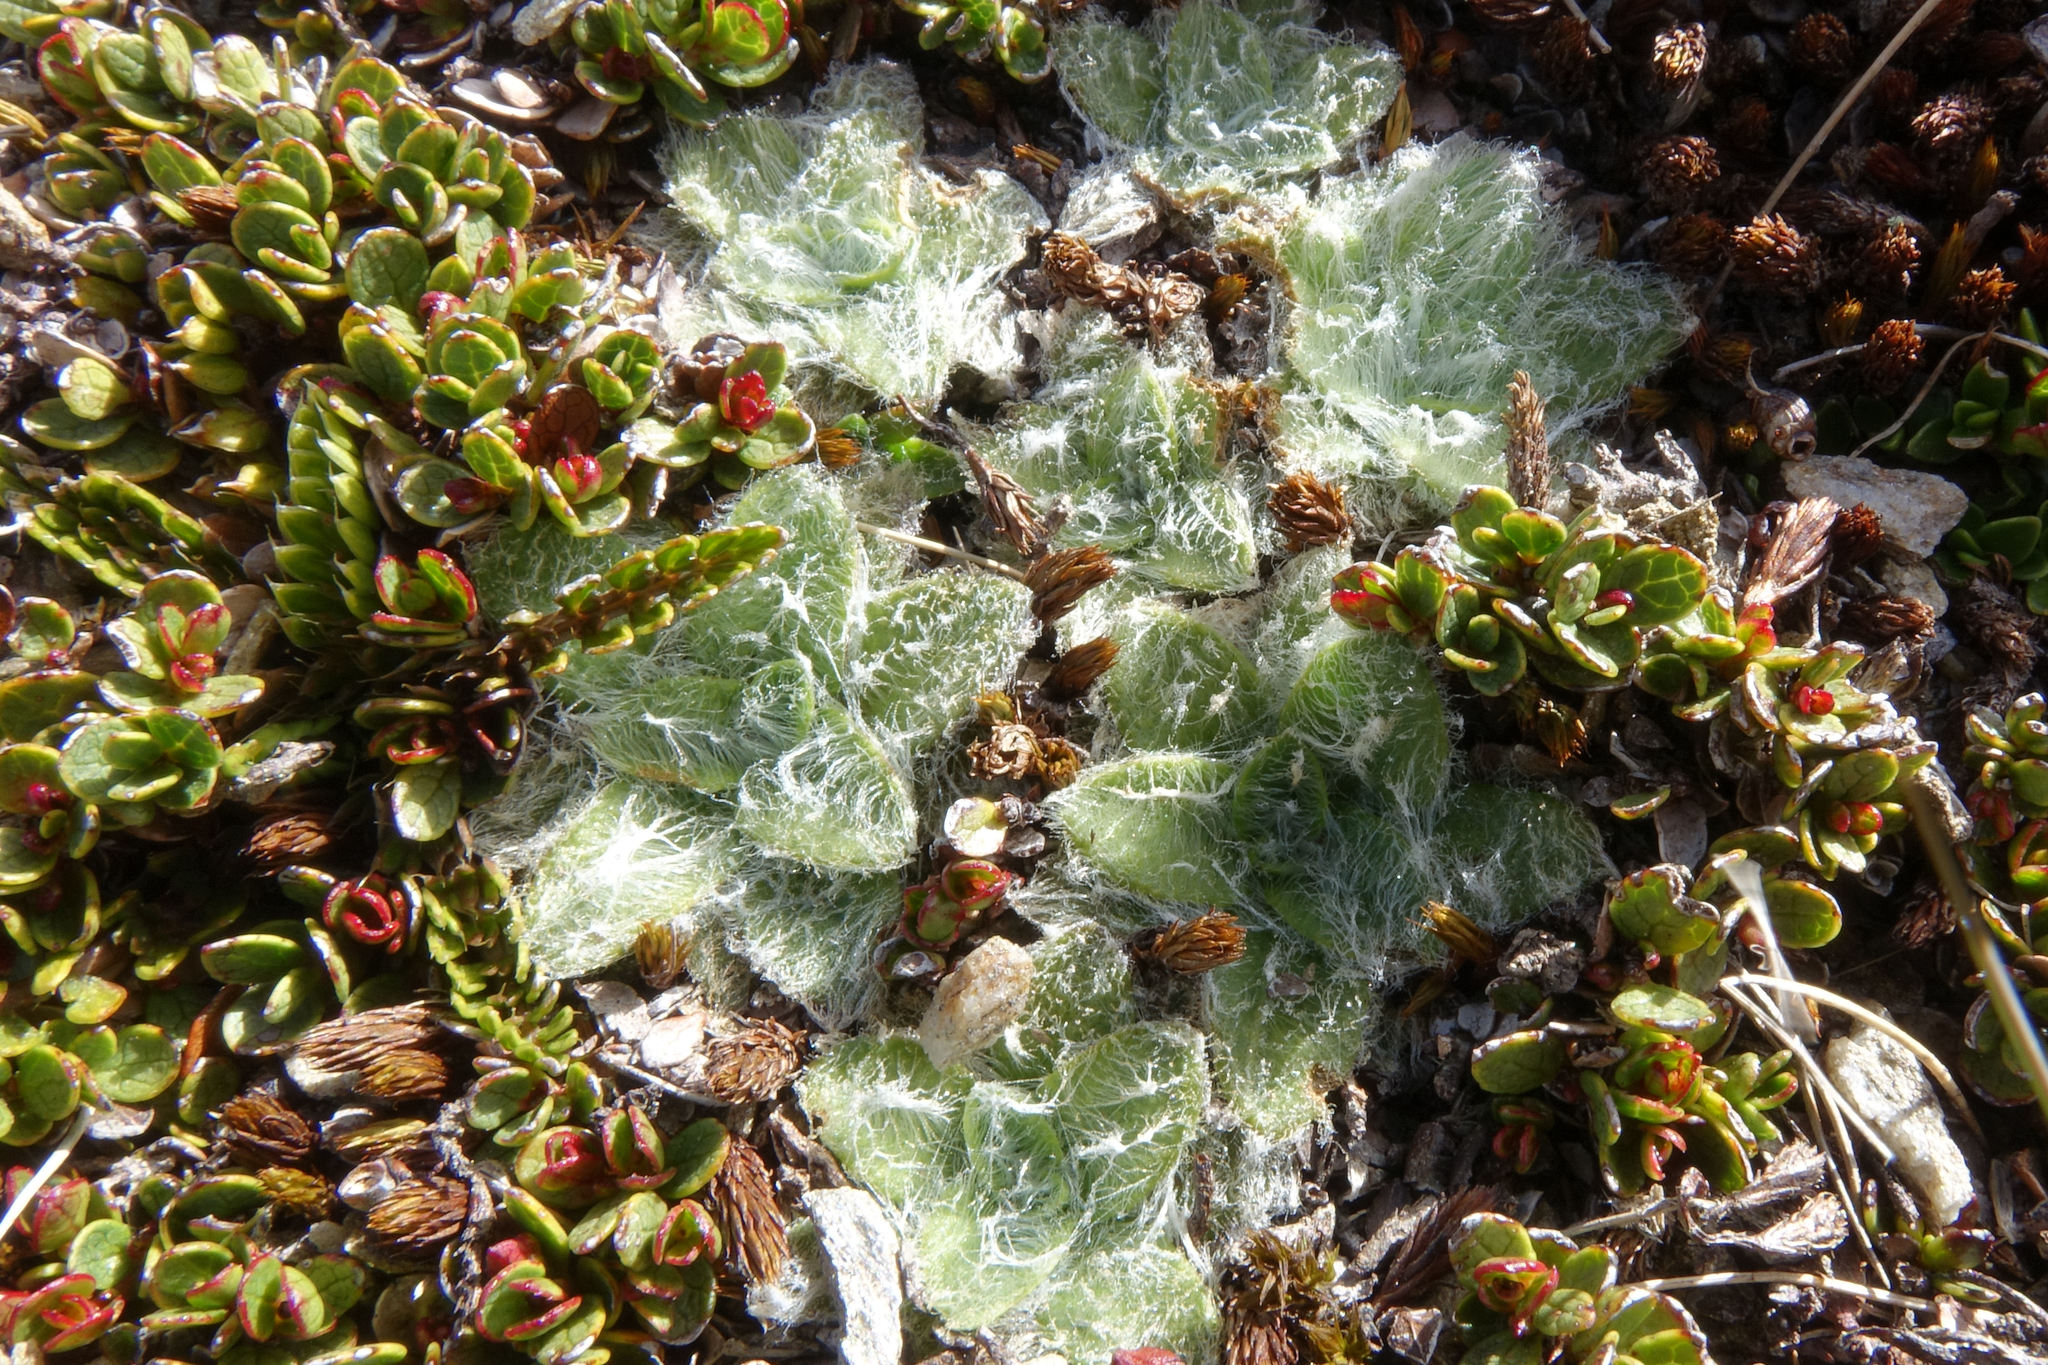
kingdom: Plantae
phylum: Tracheophyta
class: Magnoliopsida
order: Lamiales
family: Plantaginaceae
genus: Plantago
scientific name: Plantago lanigera
